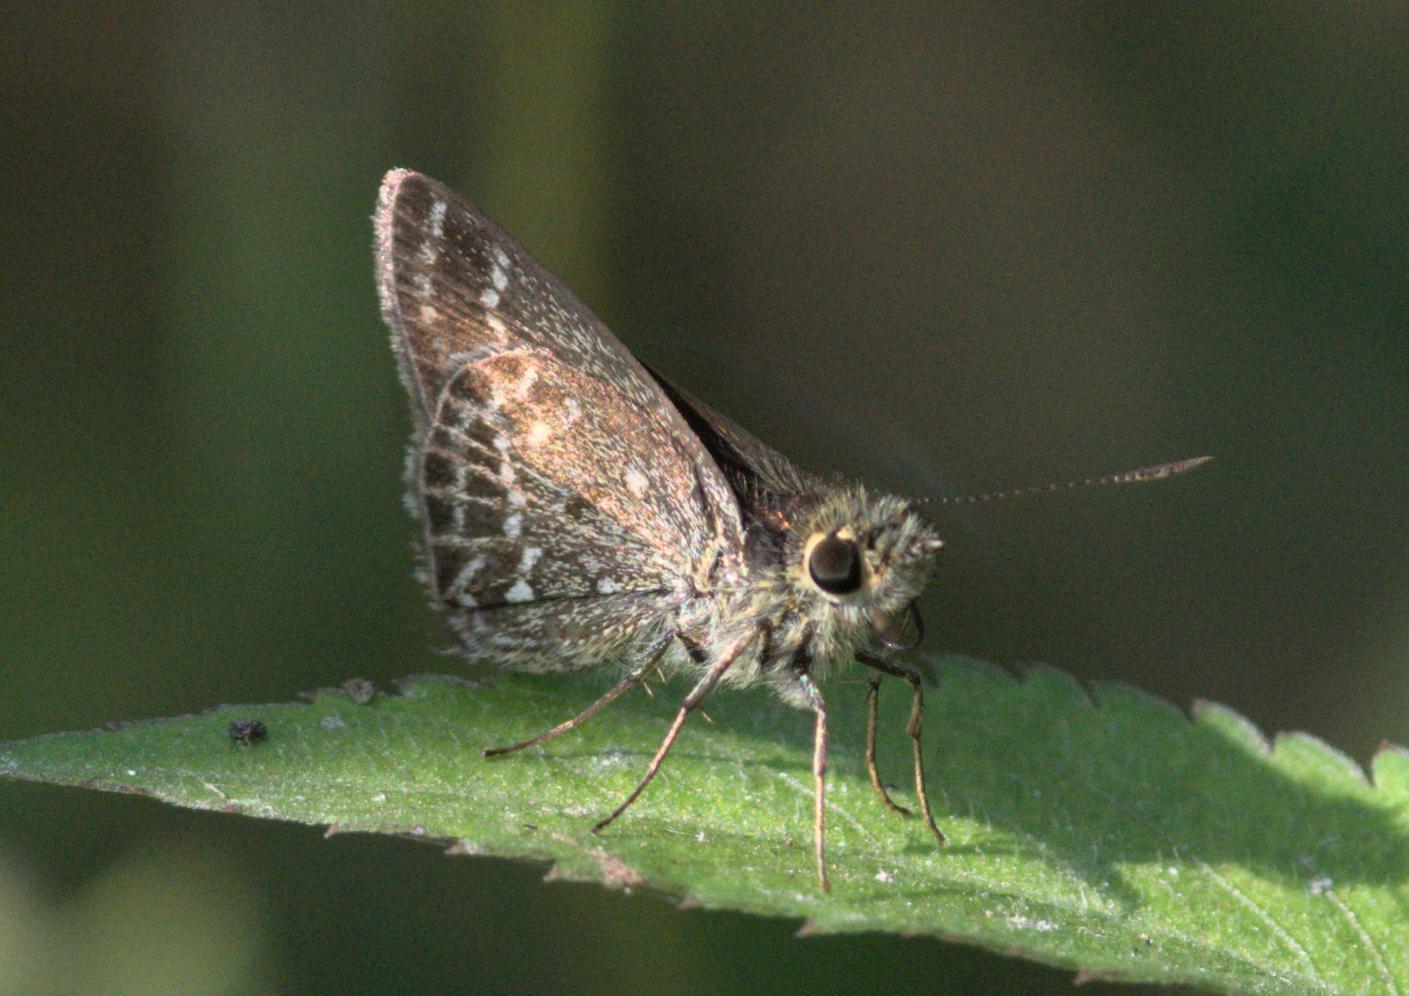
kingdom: Animalia
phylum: Arthropoda
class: Insecta
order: Lepidoptera
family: Hesperiidae
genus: Aeromachus
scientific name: Aeromachus stigmata
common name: Veined scrub hopper
